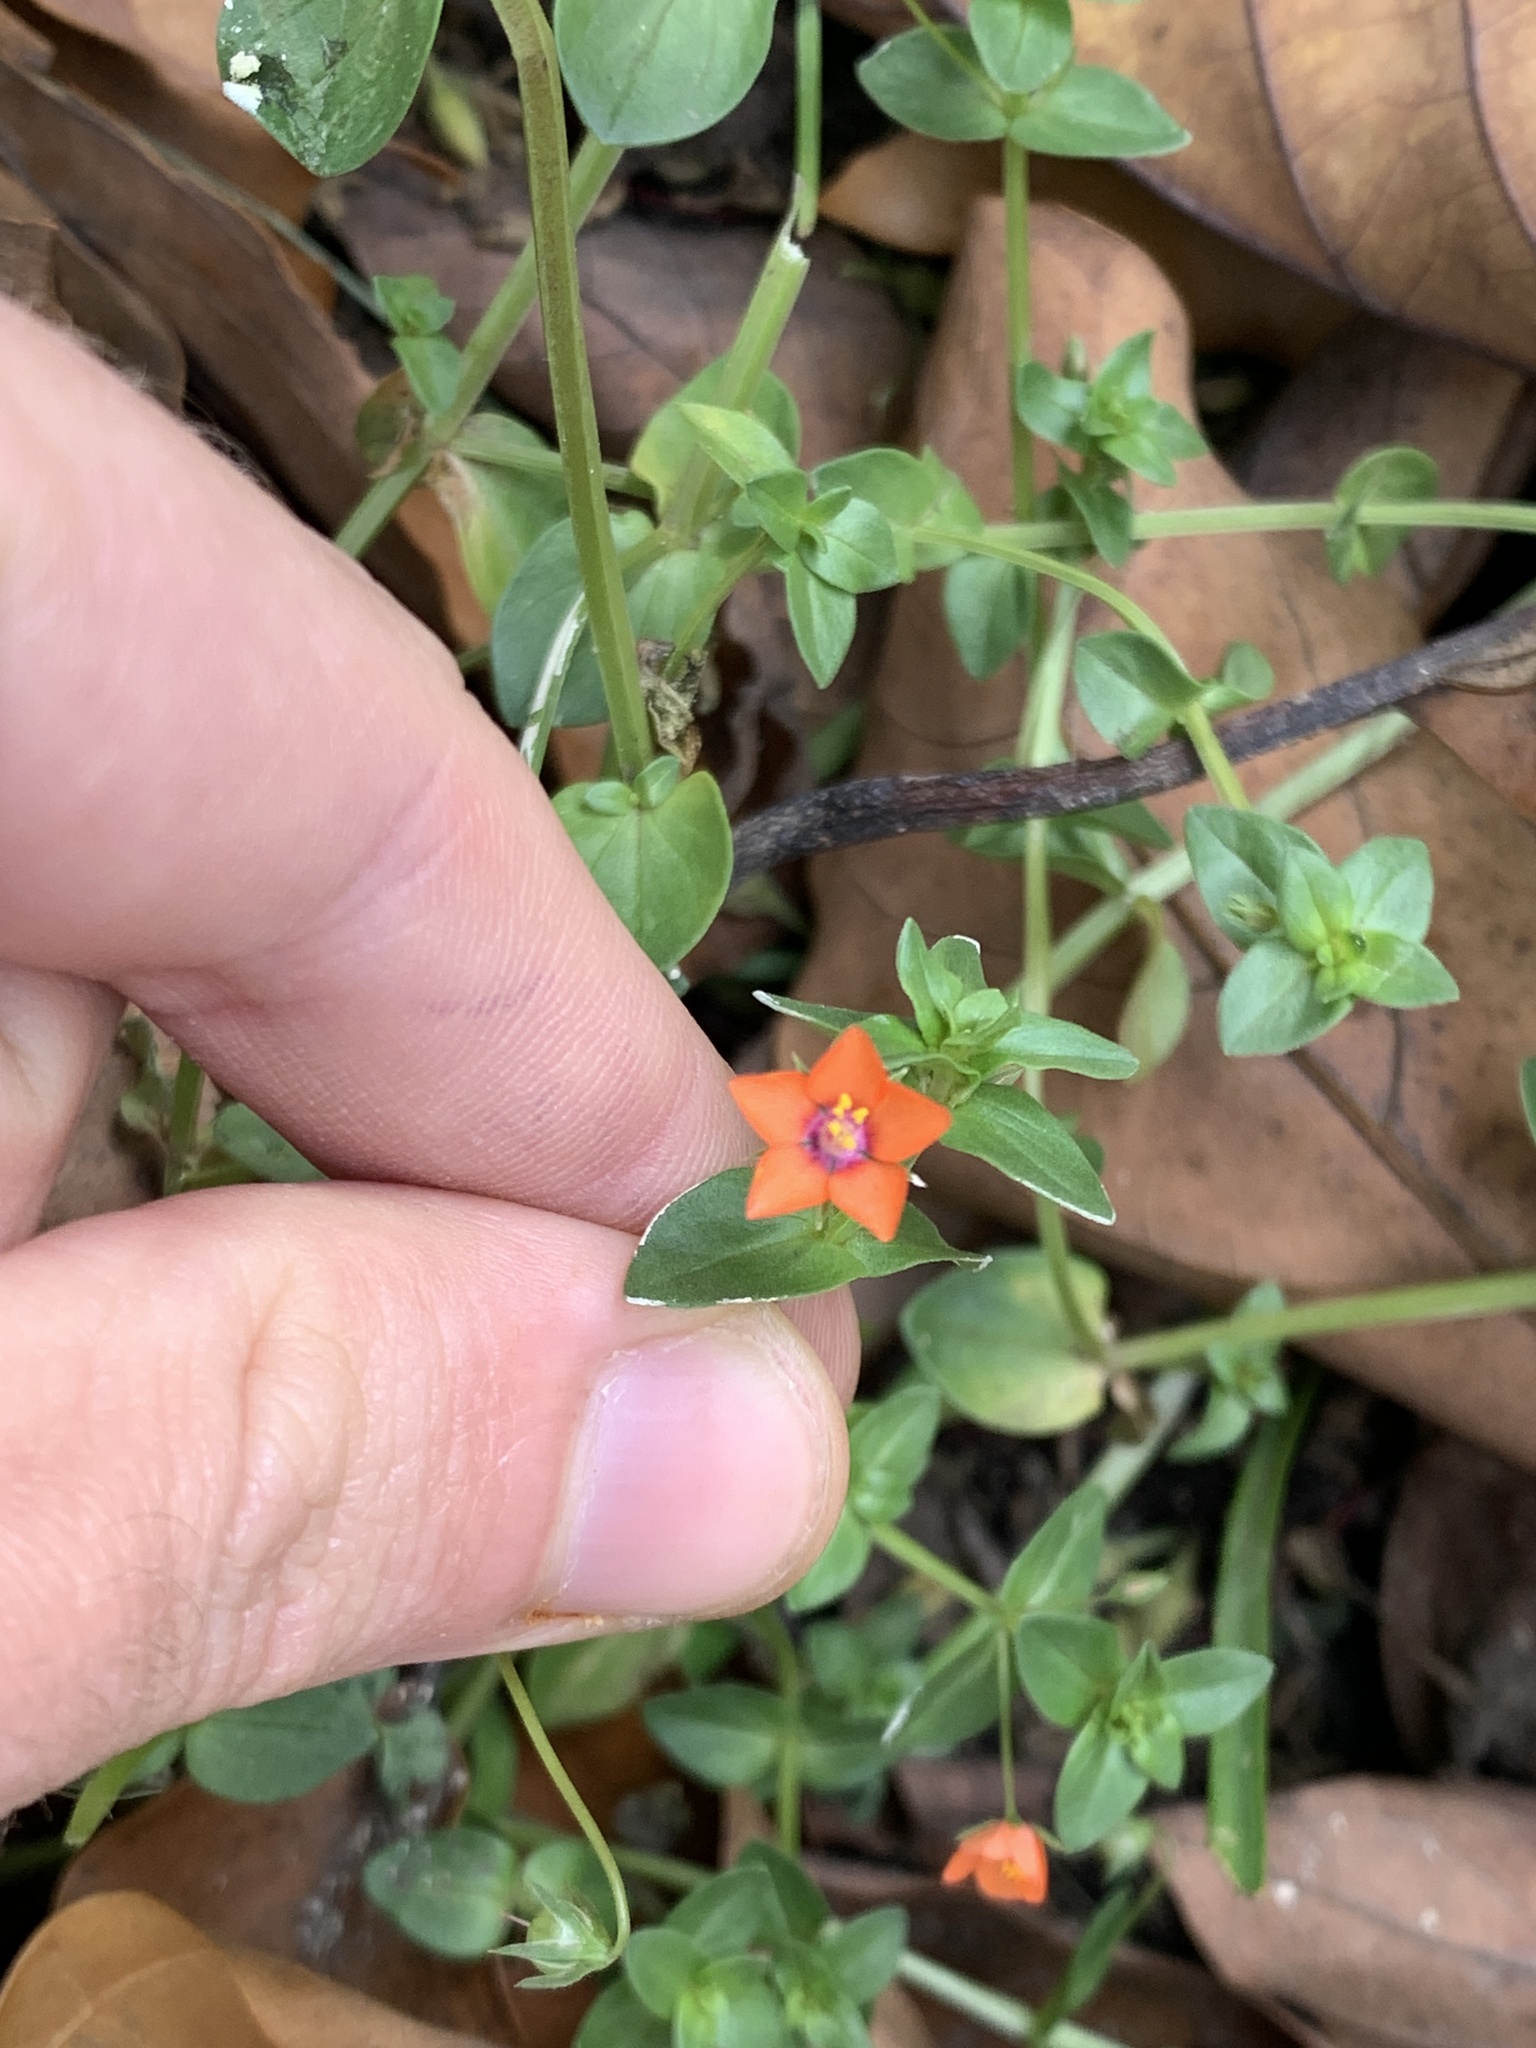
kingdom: Plantae
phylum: Tracheophyta
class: Magnoliopsida
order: Ericales
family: Primulaceae
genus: Lysimachia
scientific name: Lysimachia arvensis
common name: Scarlet pimpernel
